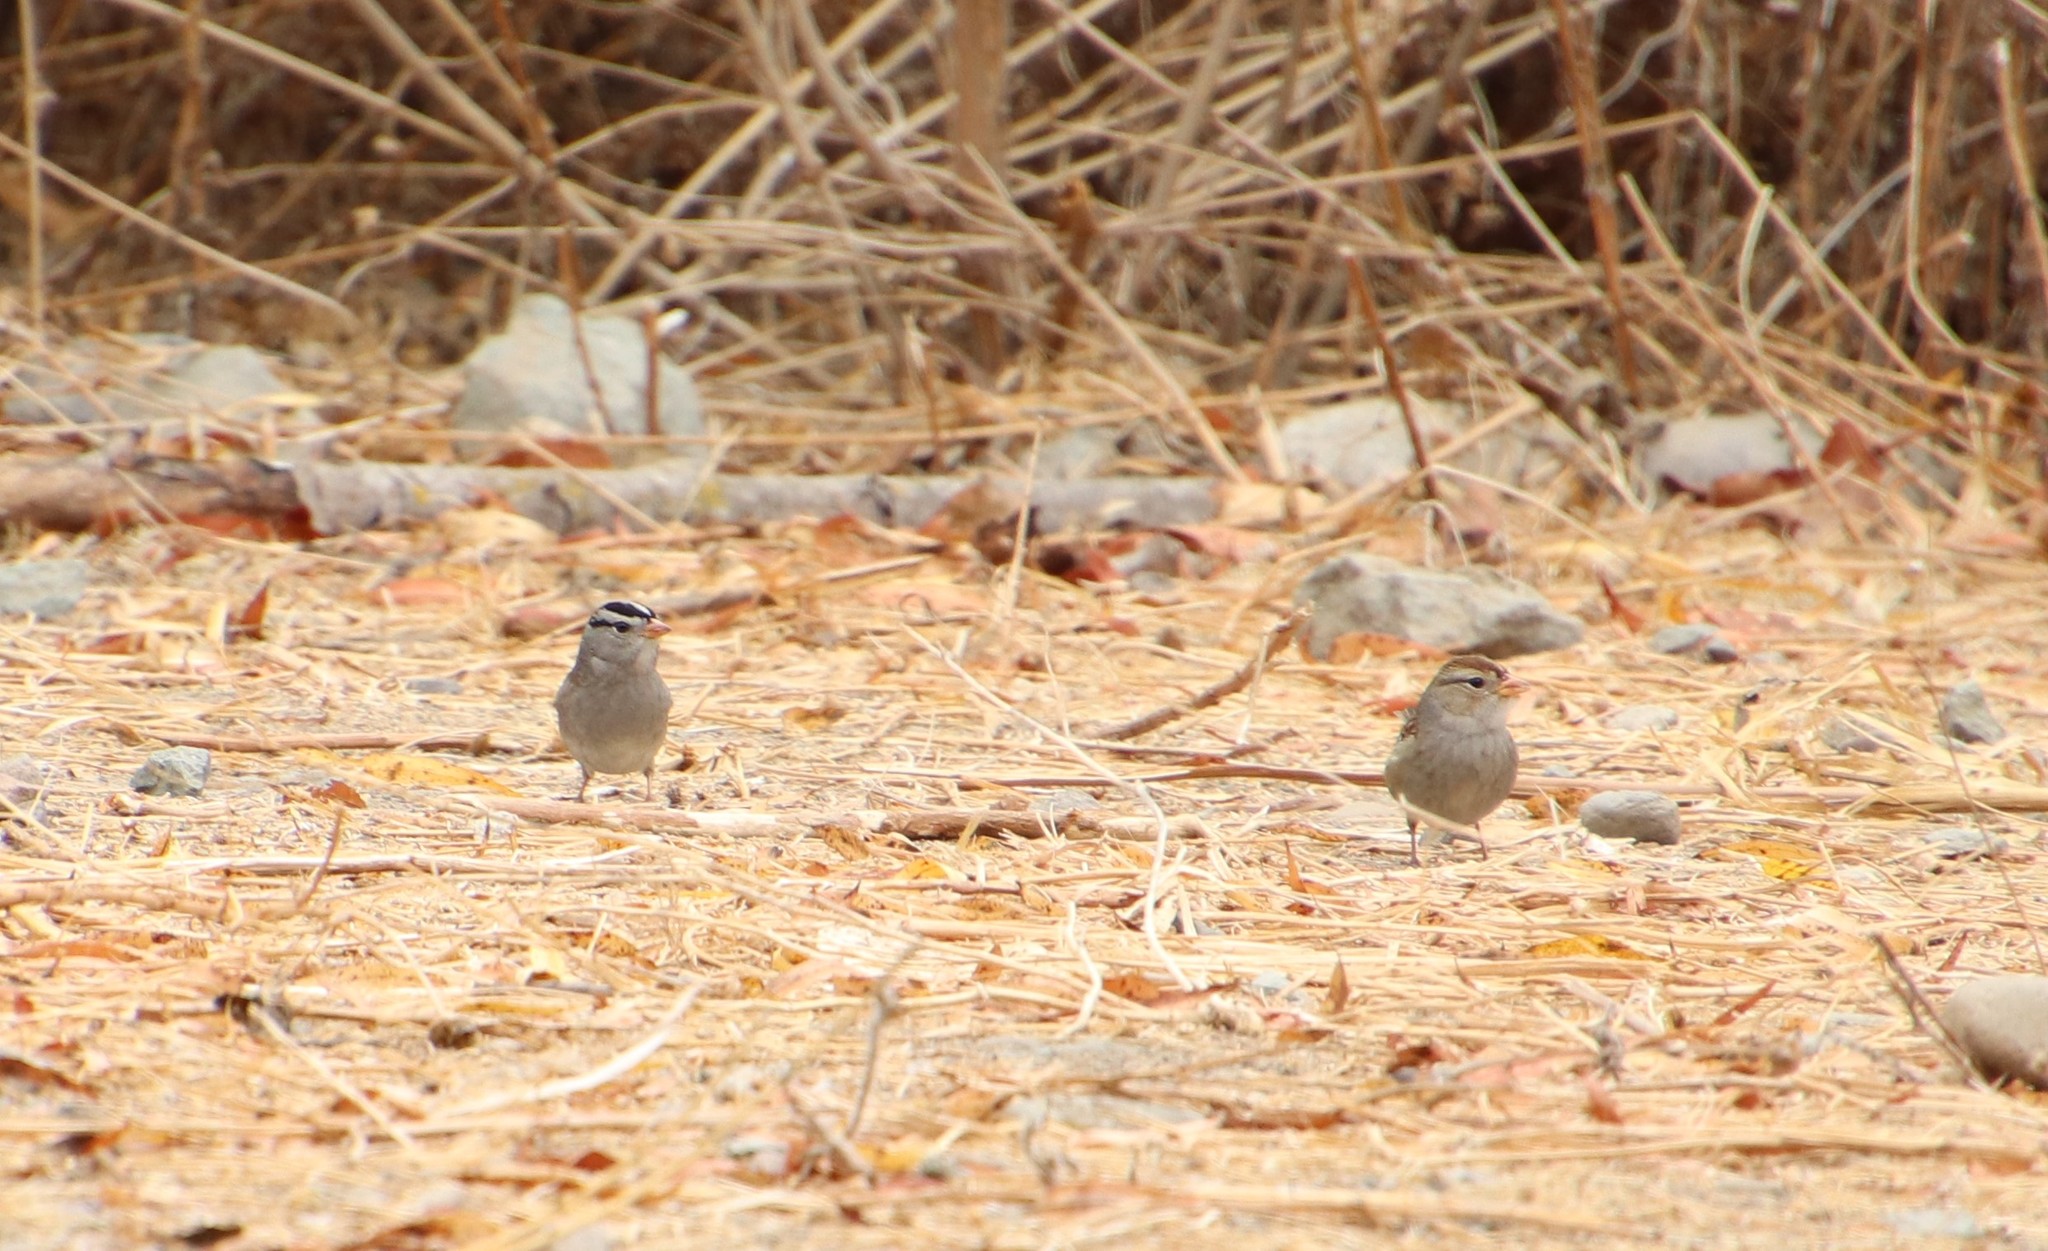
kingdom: Animalia
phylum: Chordata
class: Aves
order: Passeriformes
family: Passerellidae
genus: Zonotrichia
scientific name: Zonotrichia leucophrys
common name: White-crowned sparrow
